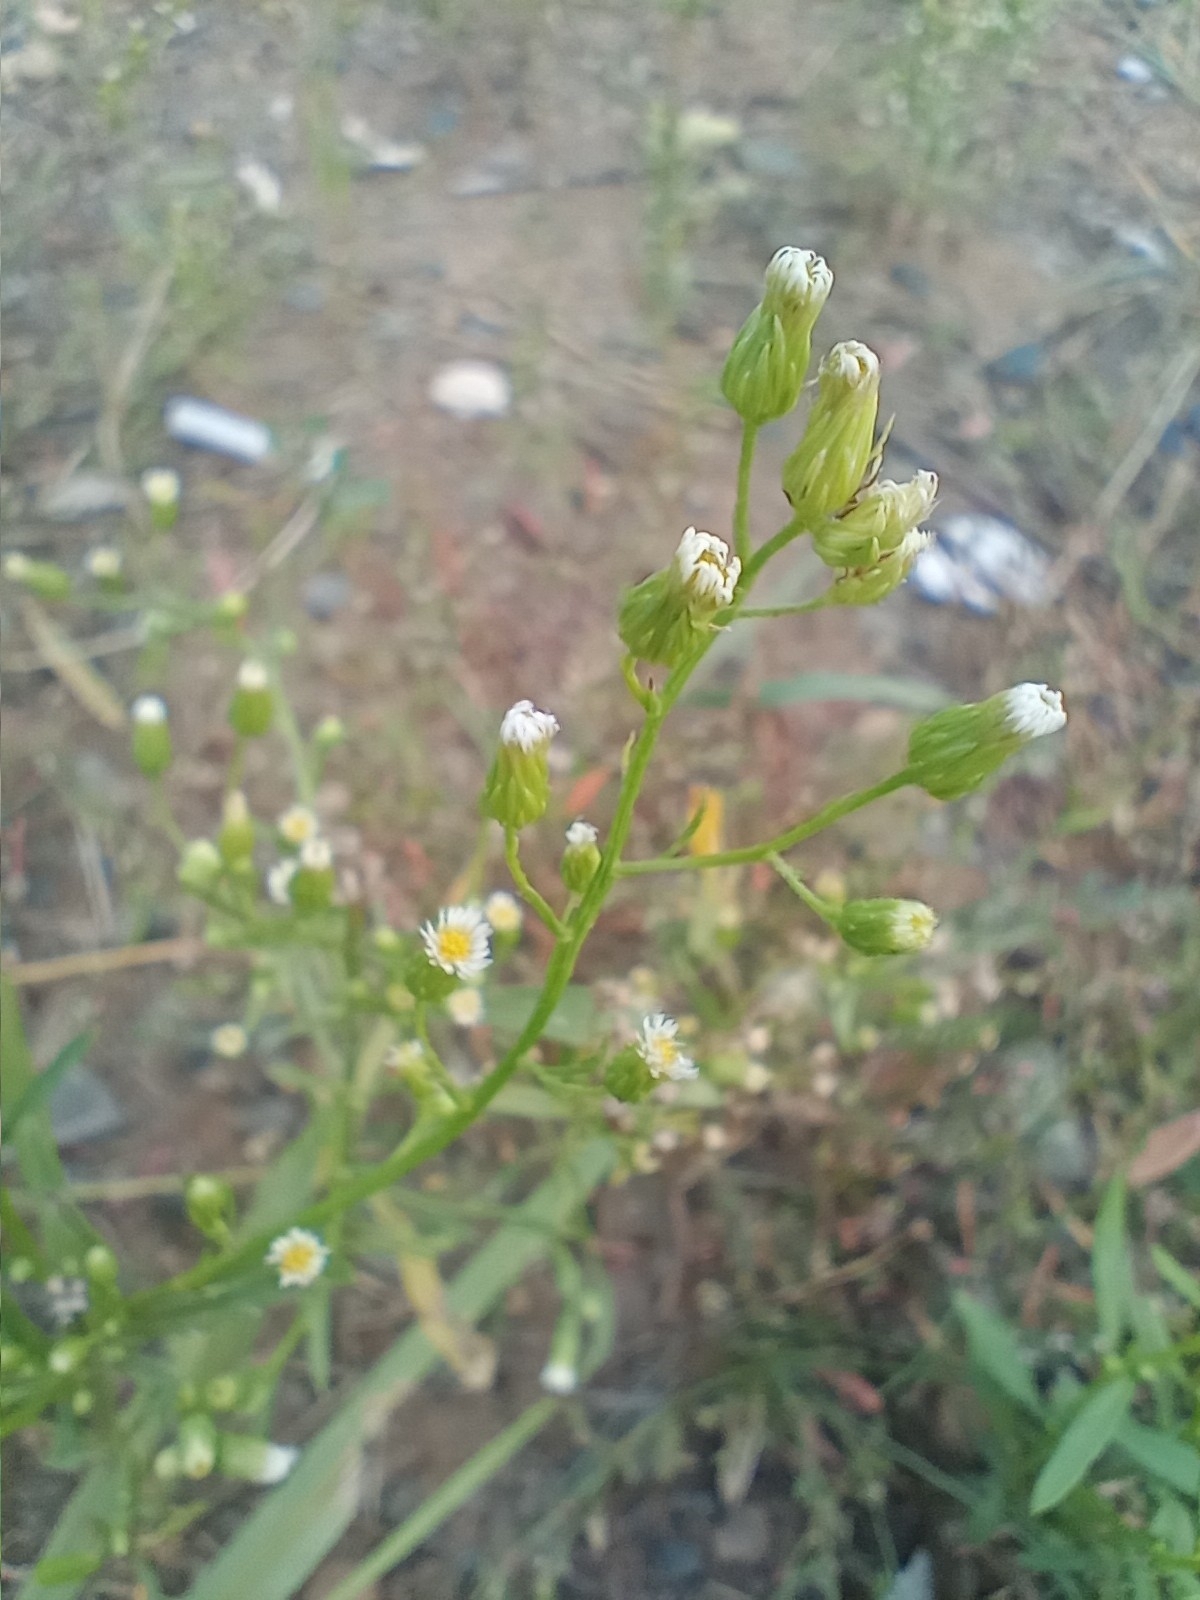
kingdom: Plantae
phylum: Tracheophyta
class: Magnoliopsida
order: Asterales
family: Asteraceae
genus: Erigeron
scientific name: Erigeron canadensis
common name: Canadian fleabane
